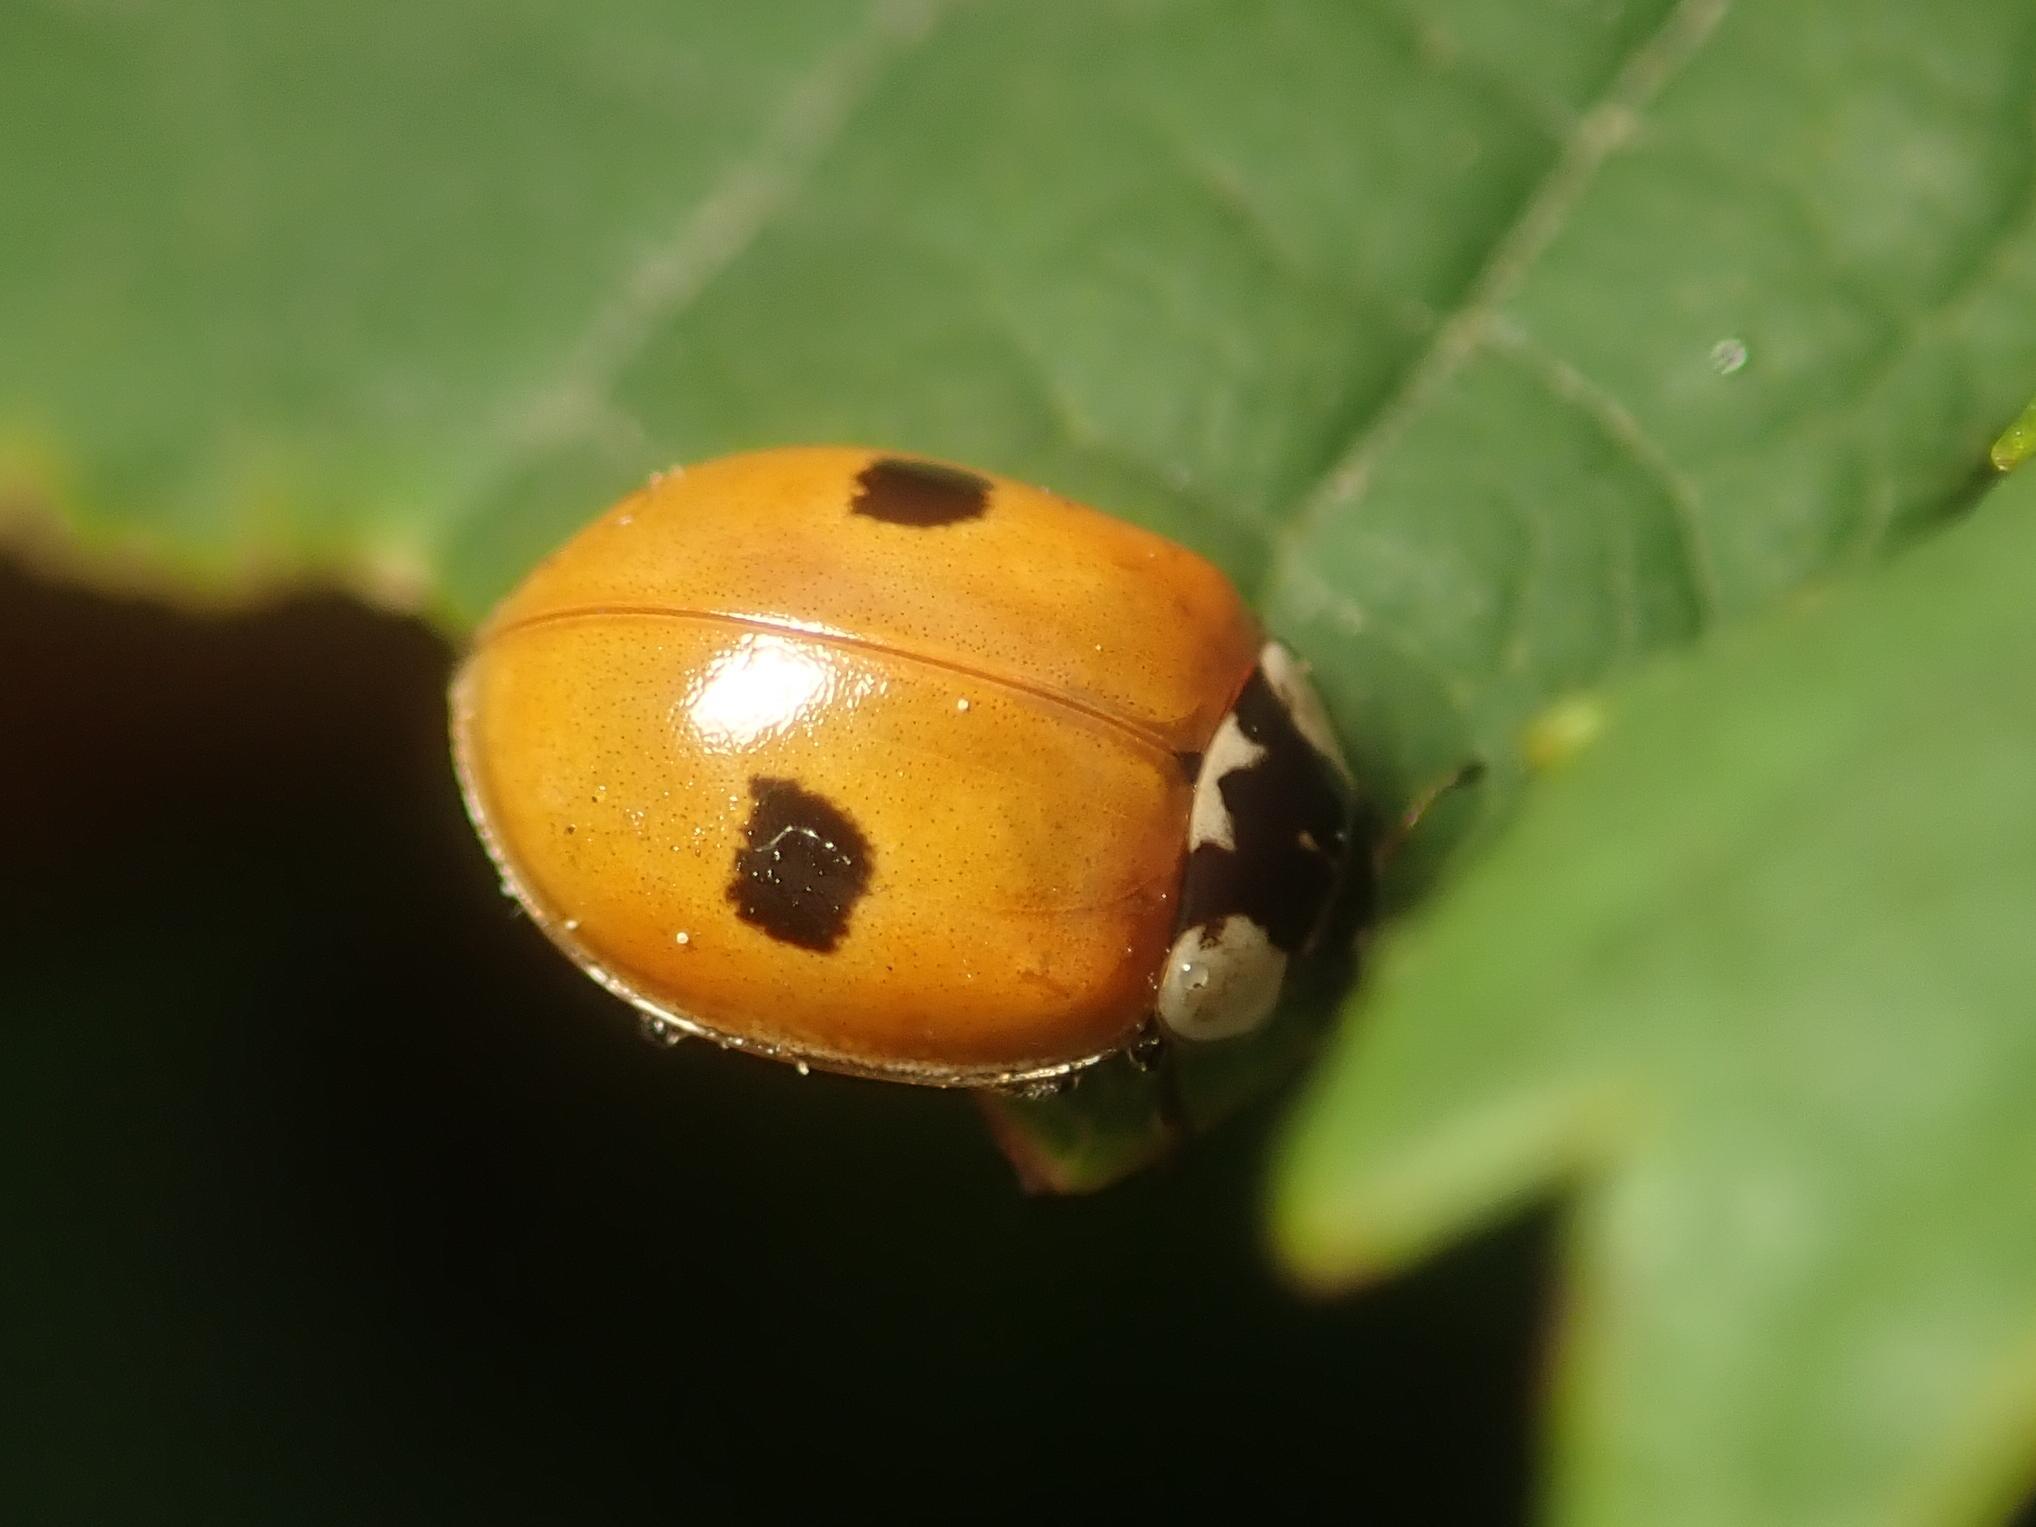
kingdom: Animalia
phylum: Arthropoda
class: Insecta
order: Coleoptera
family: Coccinellidae
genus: Adalia
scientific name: Adalia bipunctata
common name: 2-spot ladybird
